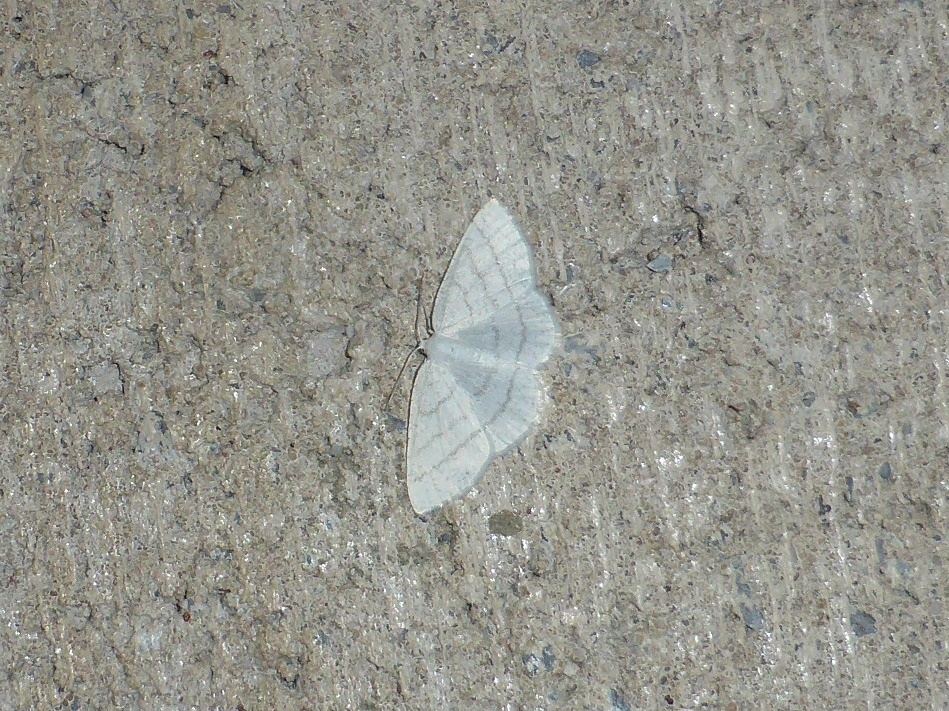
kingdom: Animalia
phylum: Arthropoda
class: Insecta
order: Lepidoptera
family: Geometridae
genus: Cabera
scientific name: Cabera pusaria
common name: Common white wave
